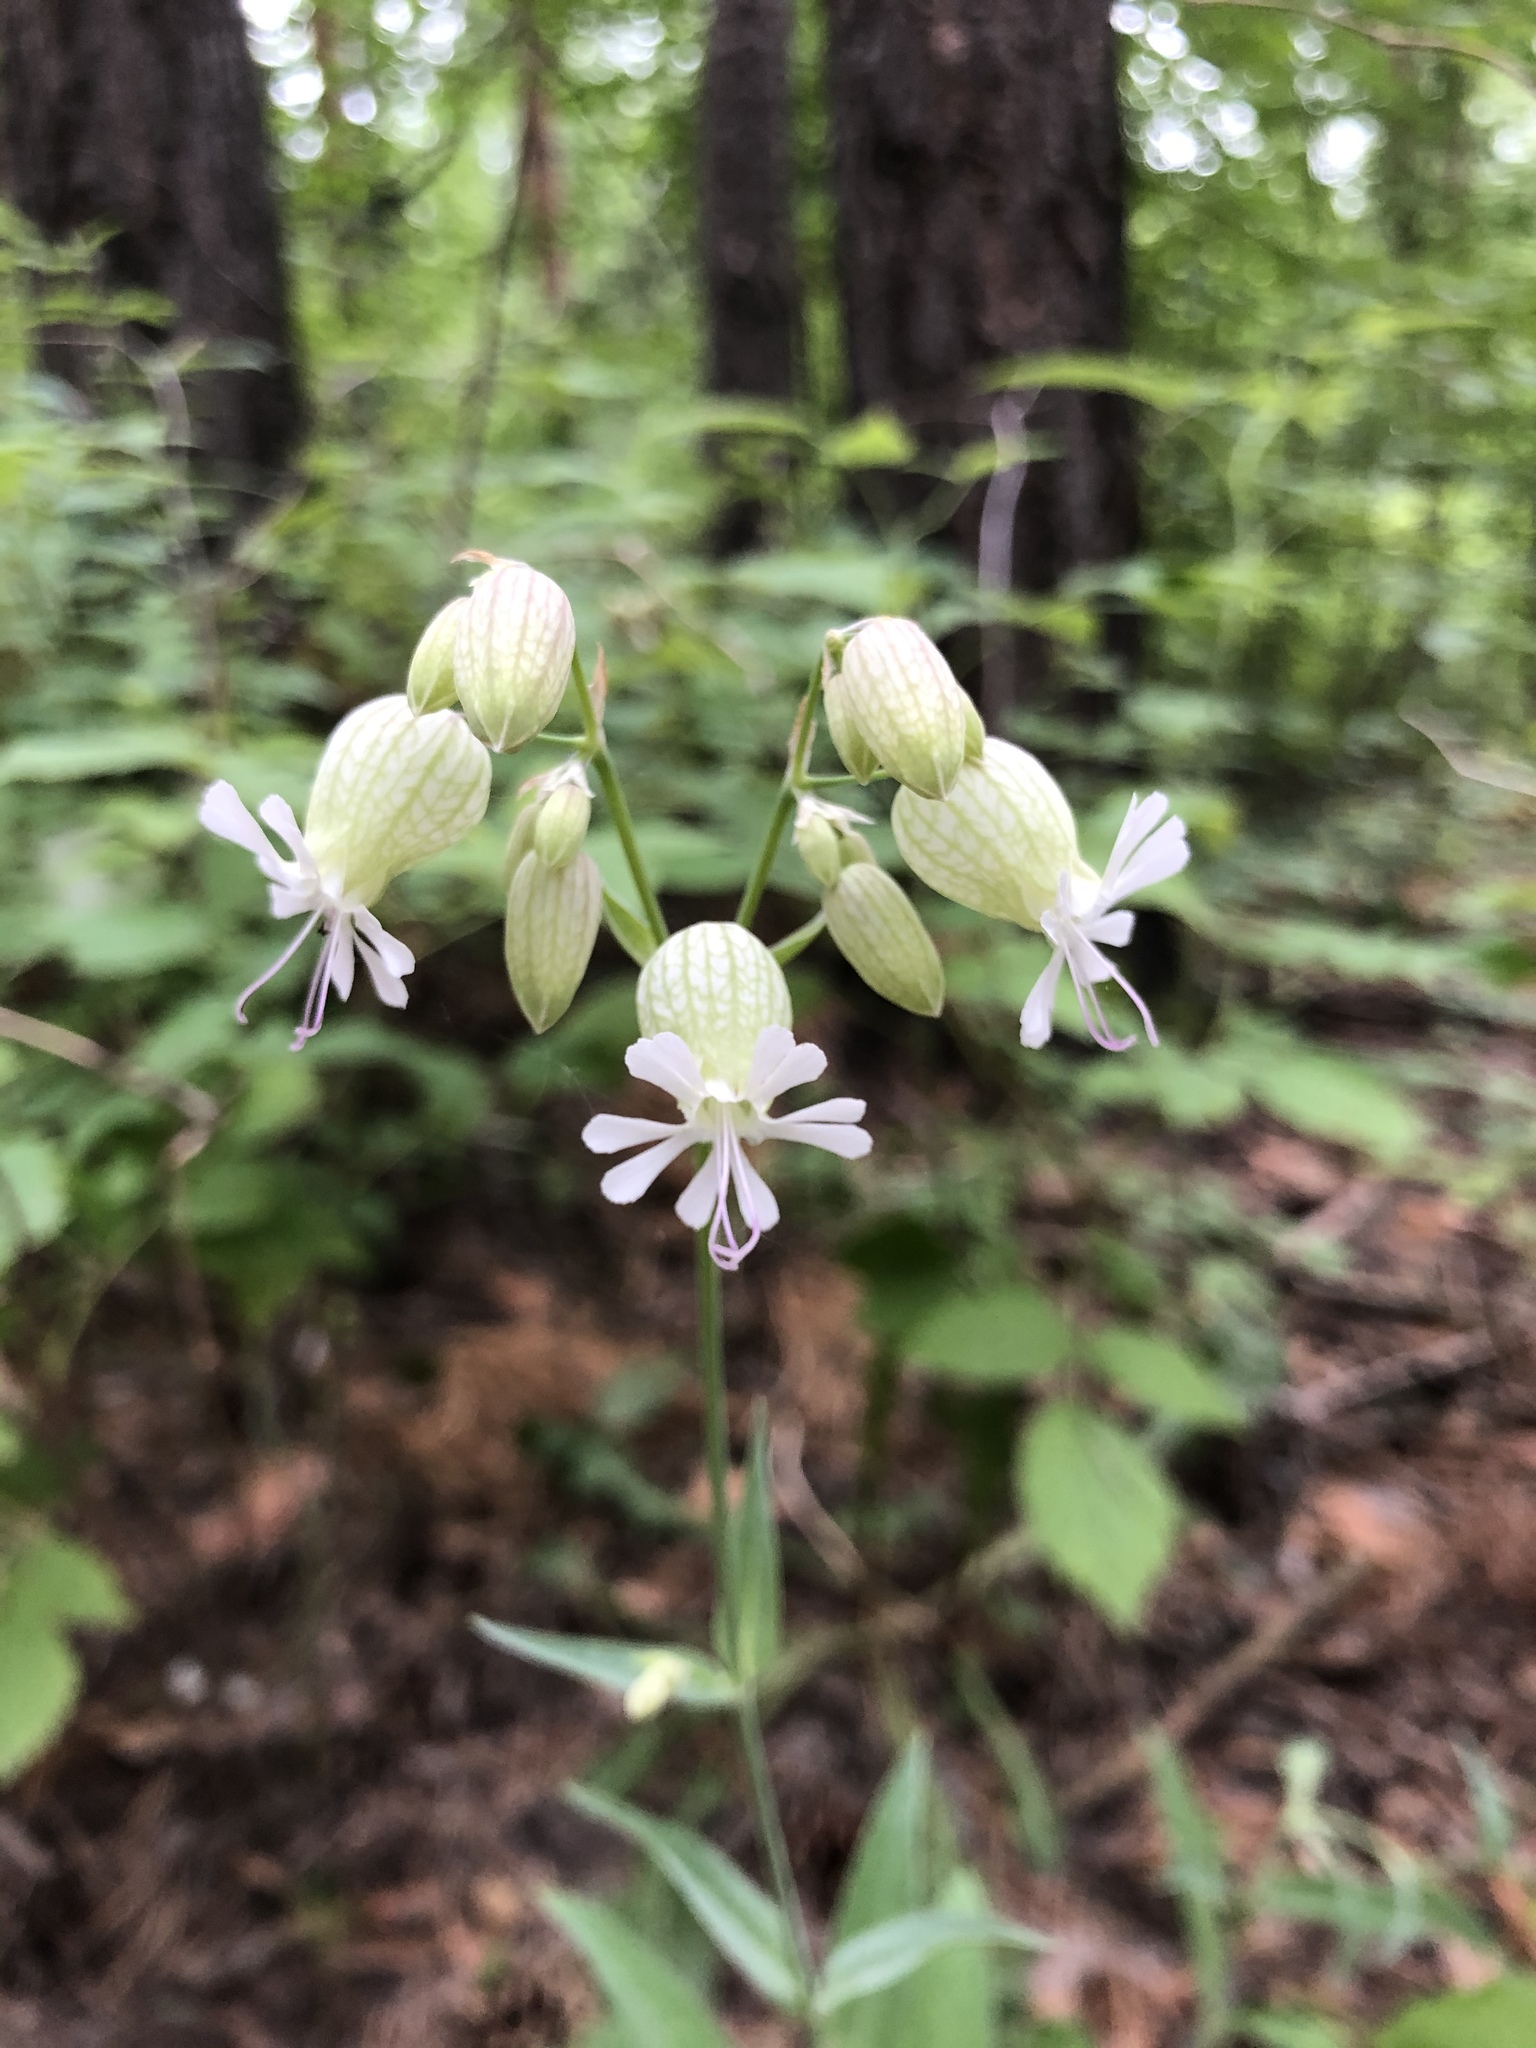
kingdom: Plantae
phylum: Tracheophyta
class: Magnoliopsida
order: Caryophyllales
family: Caryophyllaceae
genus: Silene
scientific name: Silene vulgaris
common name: Bladder campion
